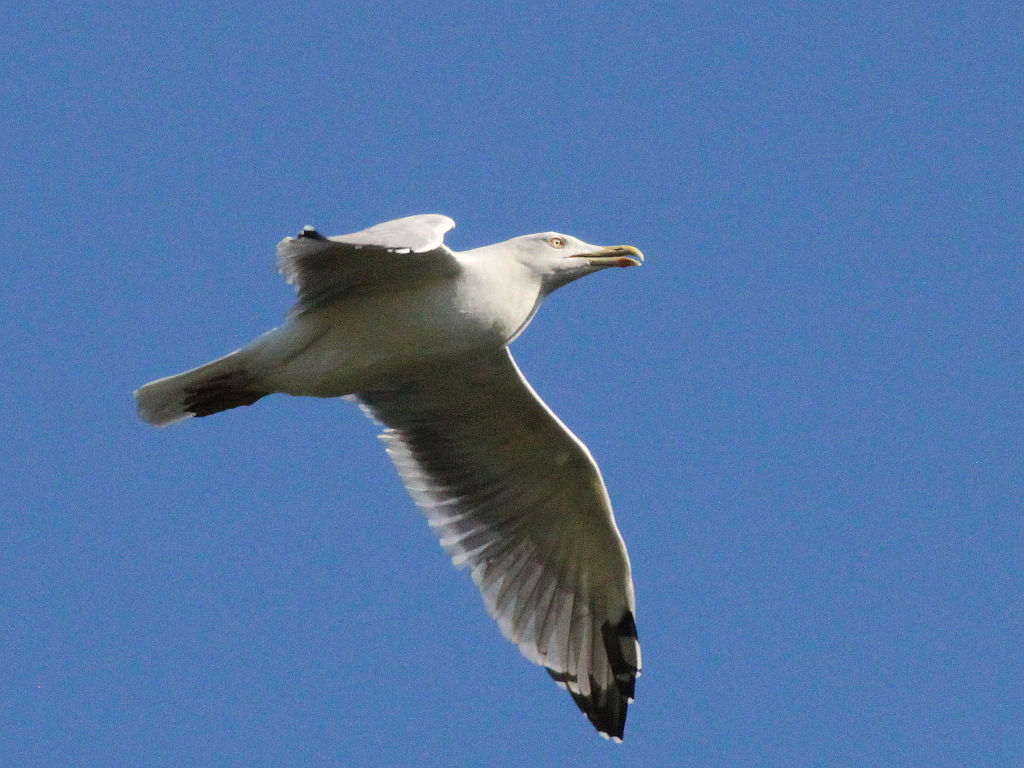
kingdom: Animalia
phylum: Chordata
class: Aves
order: Charadriiformes
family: Laridae
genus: Larus
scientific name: Larus michahellis
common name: Yellow-legged gull
